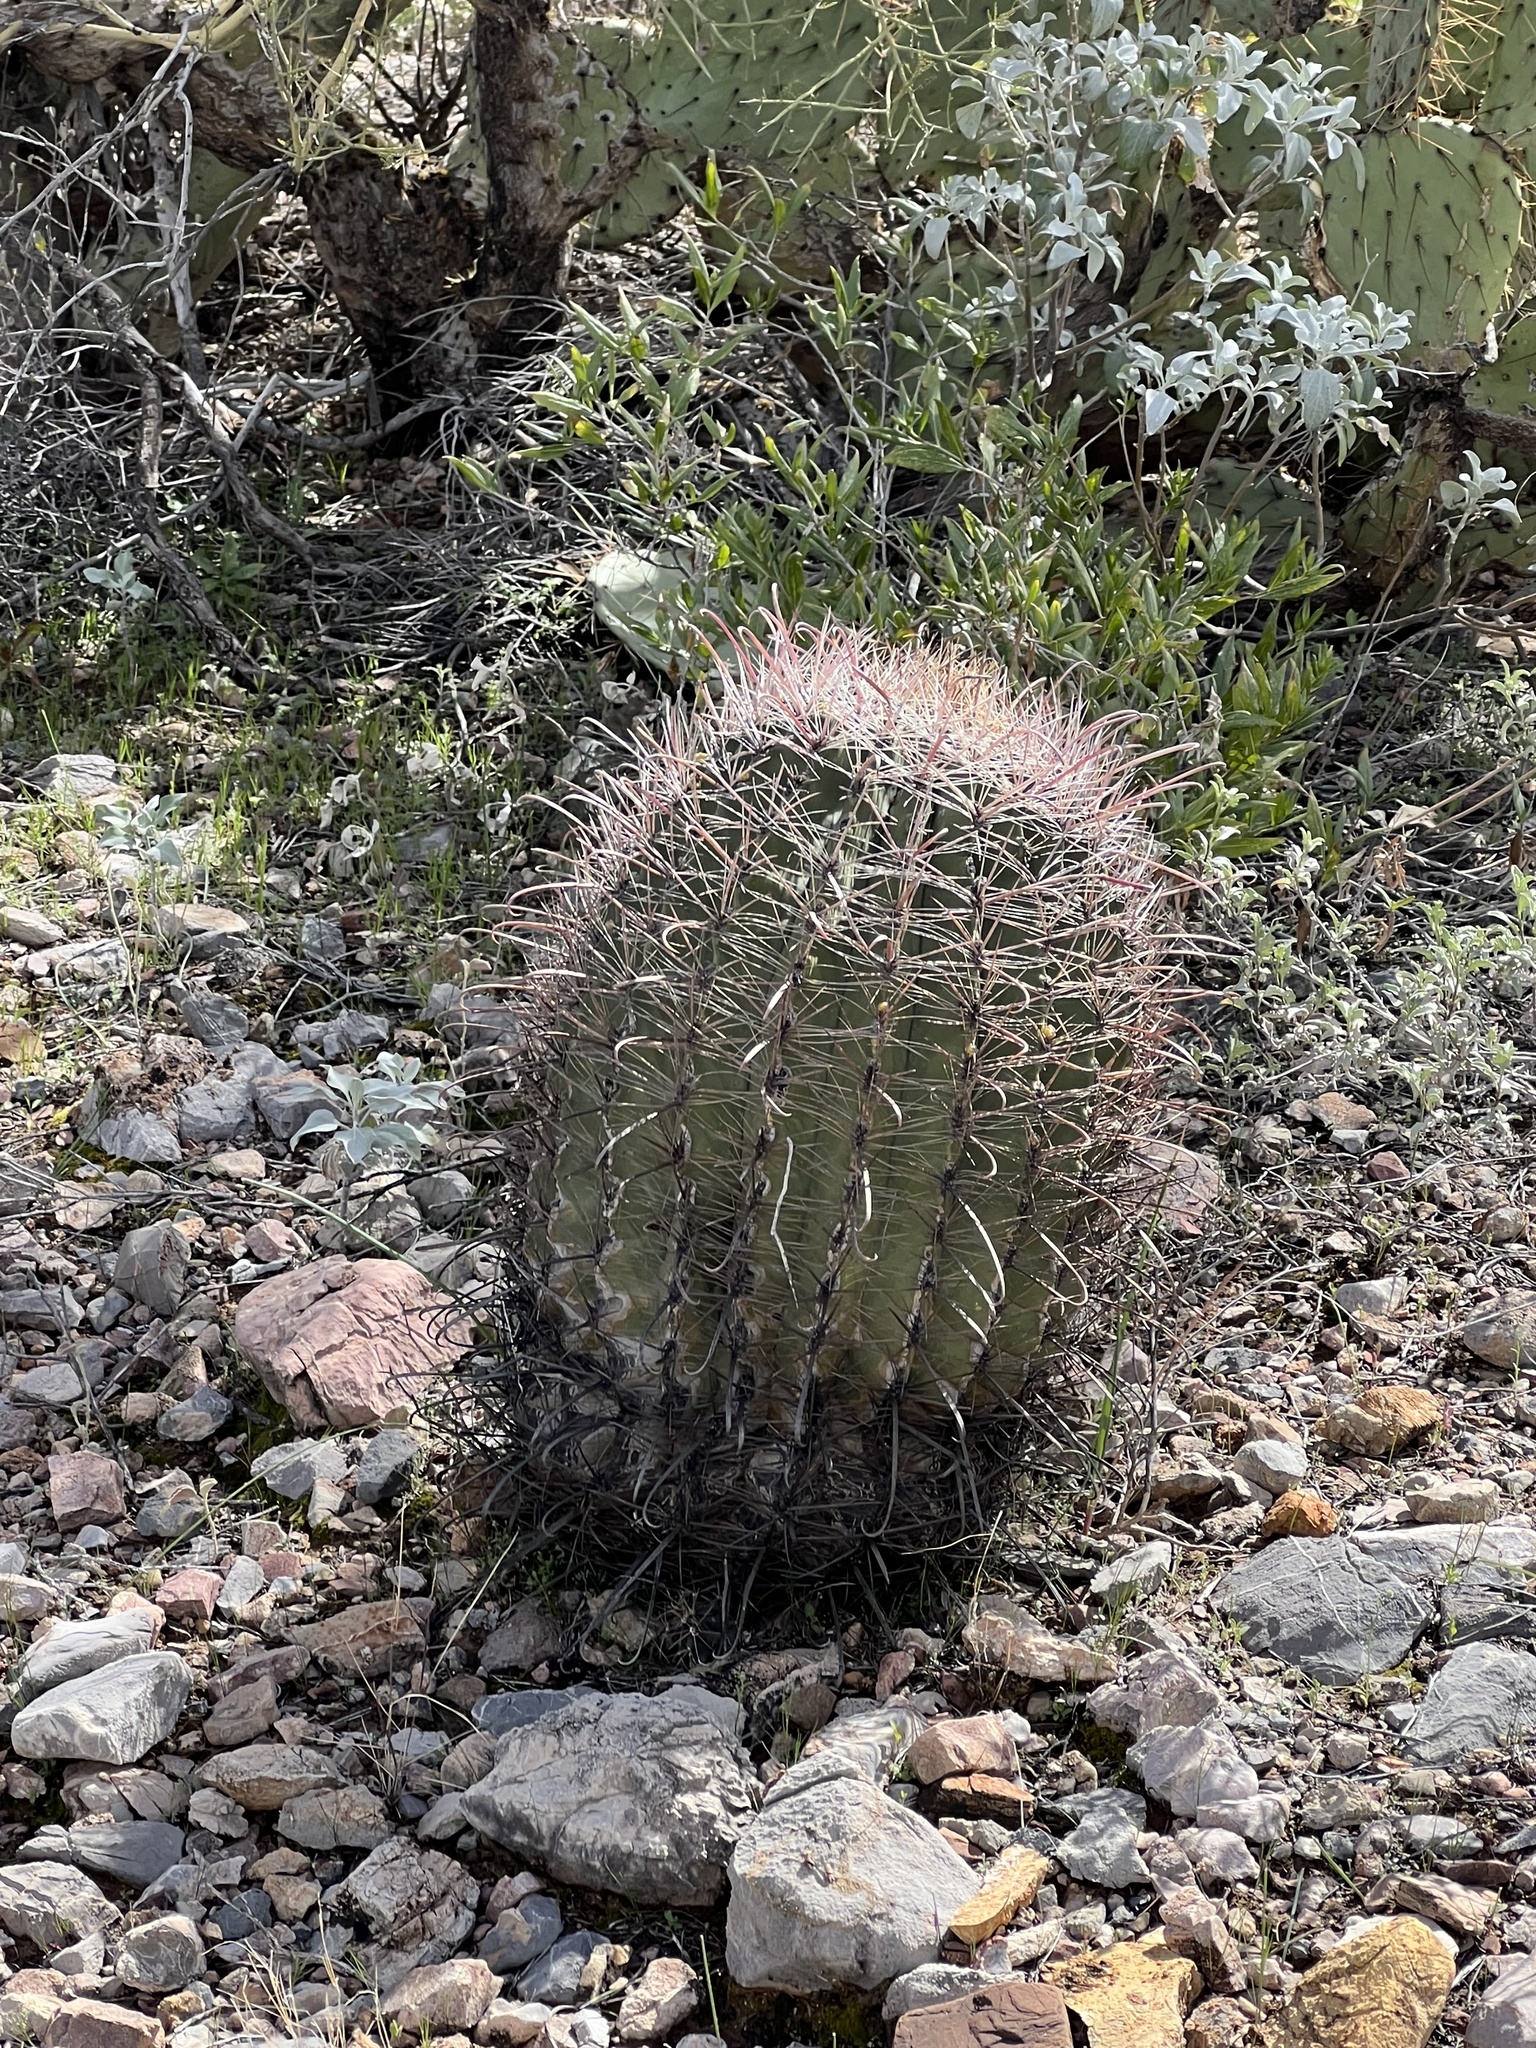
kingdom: Plantae
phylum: Tracheophyta
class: Magnoliopsida
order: Caryophyllales
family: Cactaceae
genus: Ferocactus
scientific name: Ferocactus wislizeni
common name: Candy barrel cactus
